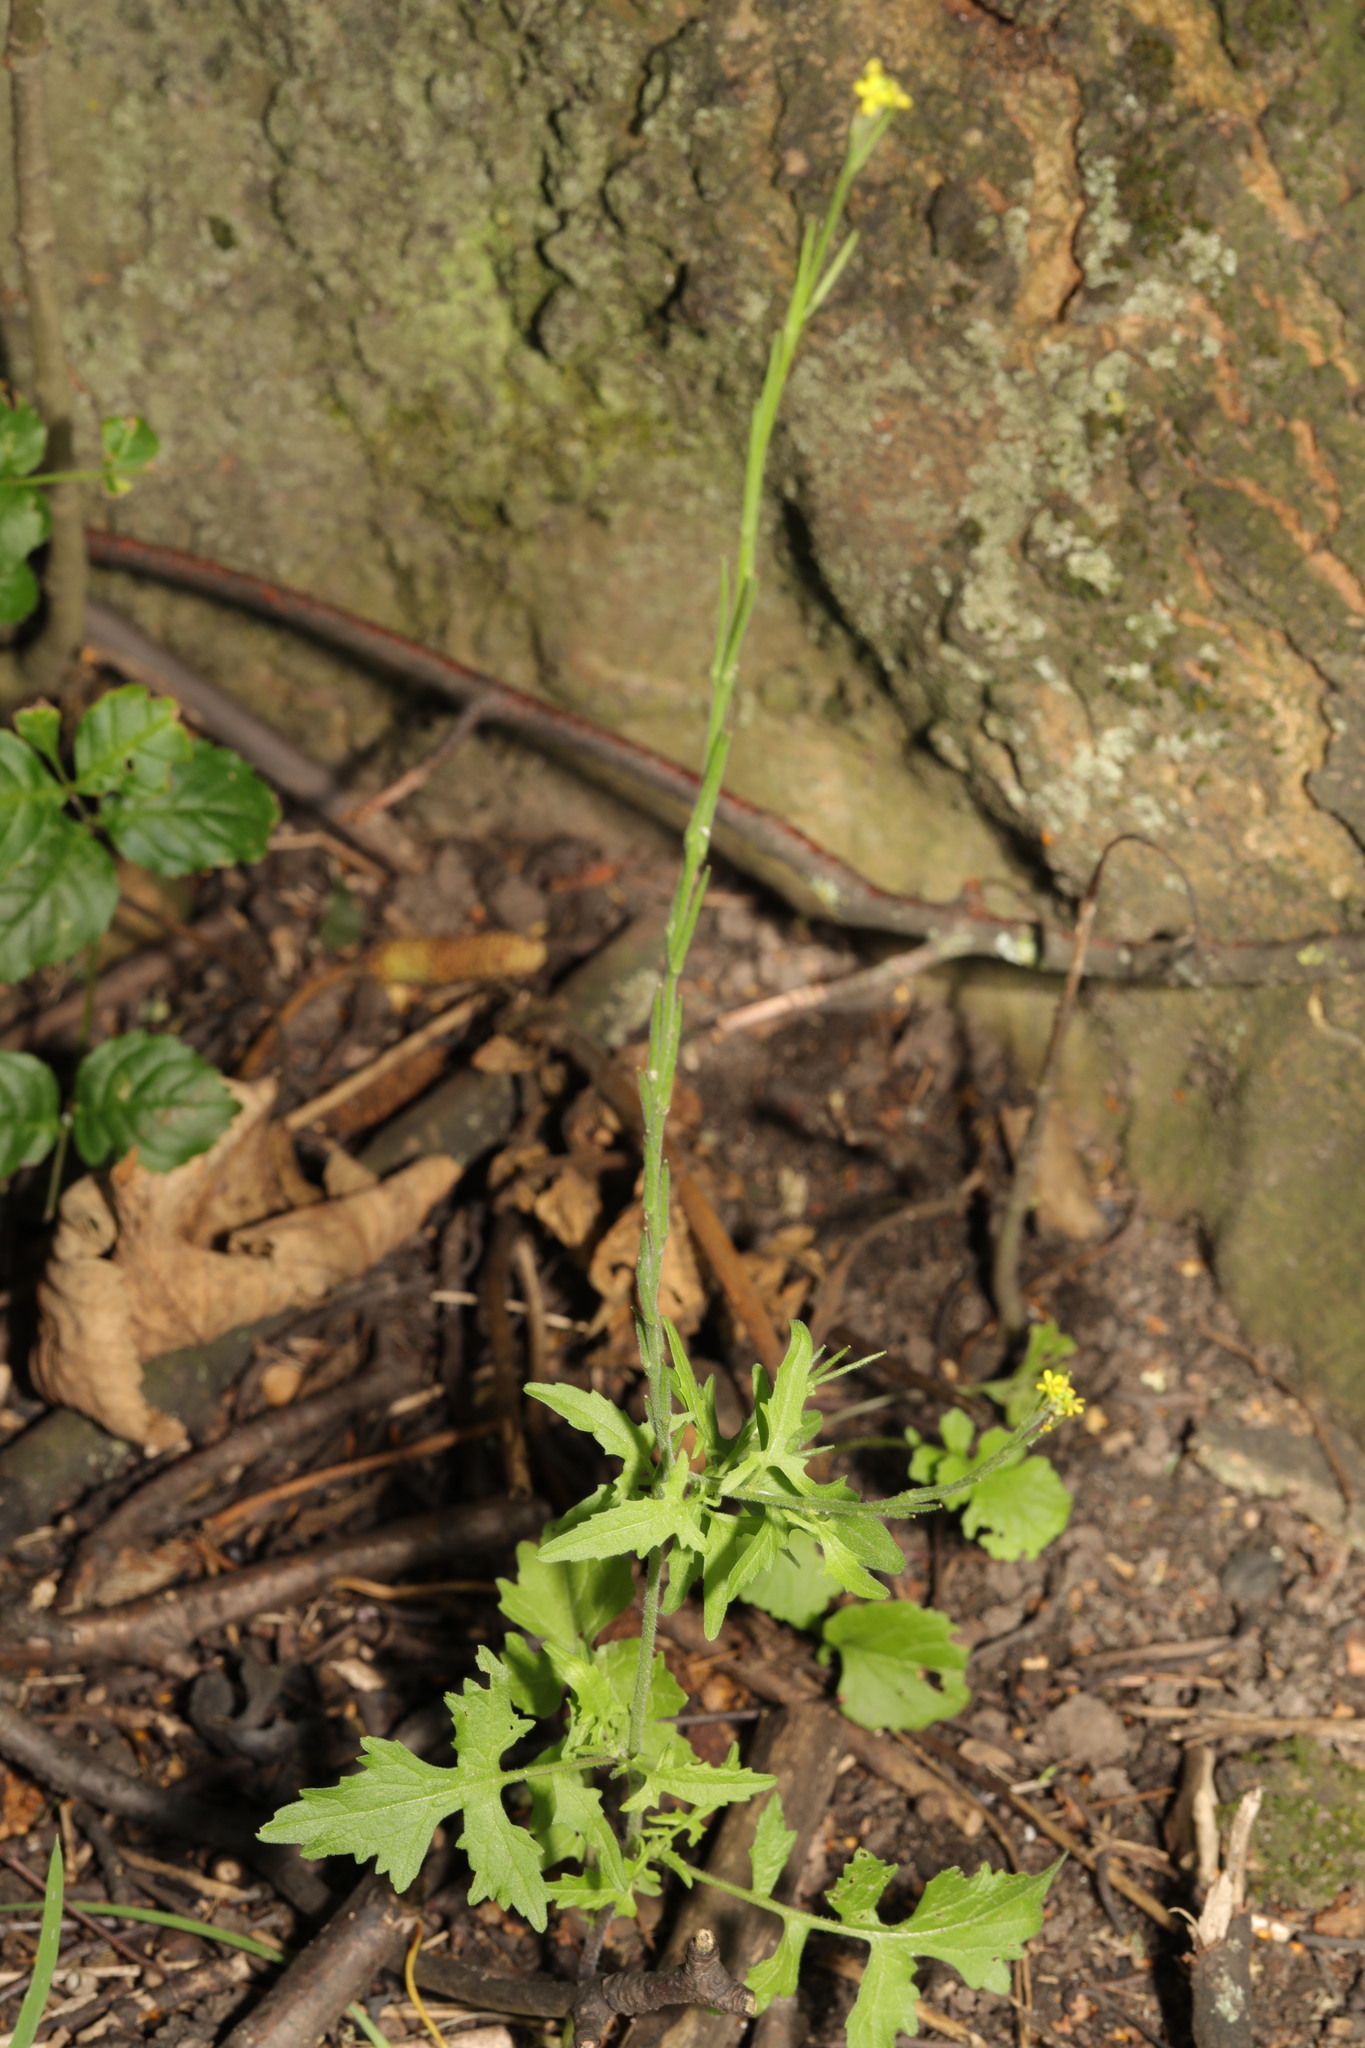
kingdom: Plantae
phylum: Tracheophyta
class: Magnoliopsida
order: Brassicales
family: Brassicaceae
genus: Sisymbrium
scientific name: Sisymbrium officinale
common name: Hedge mustard
